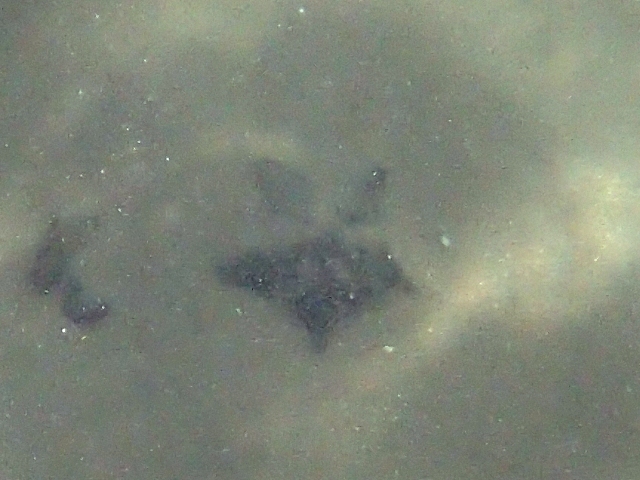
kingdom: Animalia
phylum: Echinodermata
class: Asteroidea
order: Valvatida
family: Asterinidae
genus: Patiriella
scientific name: Patiriella regularis
